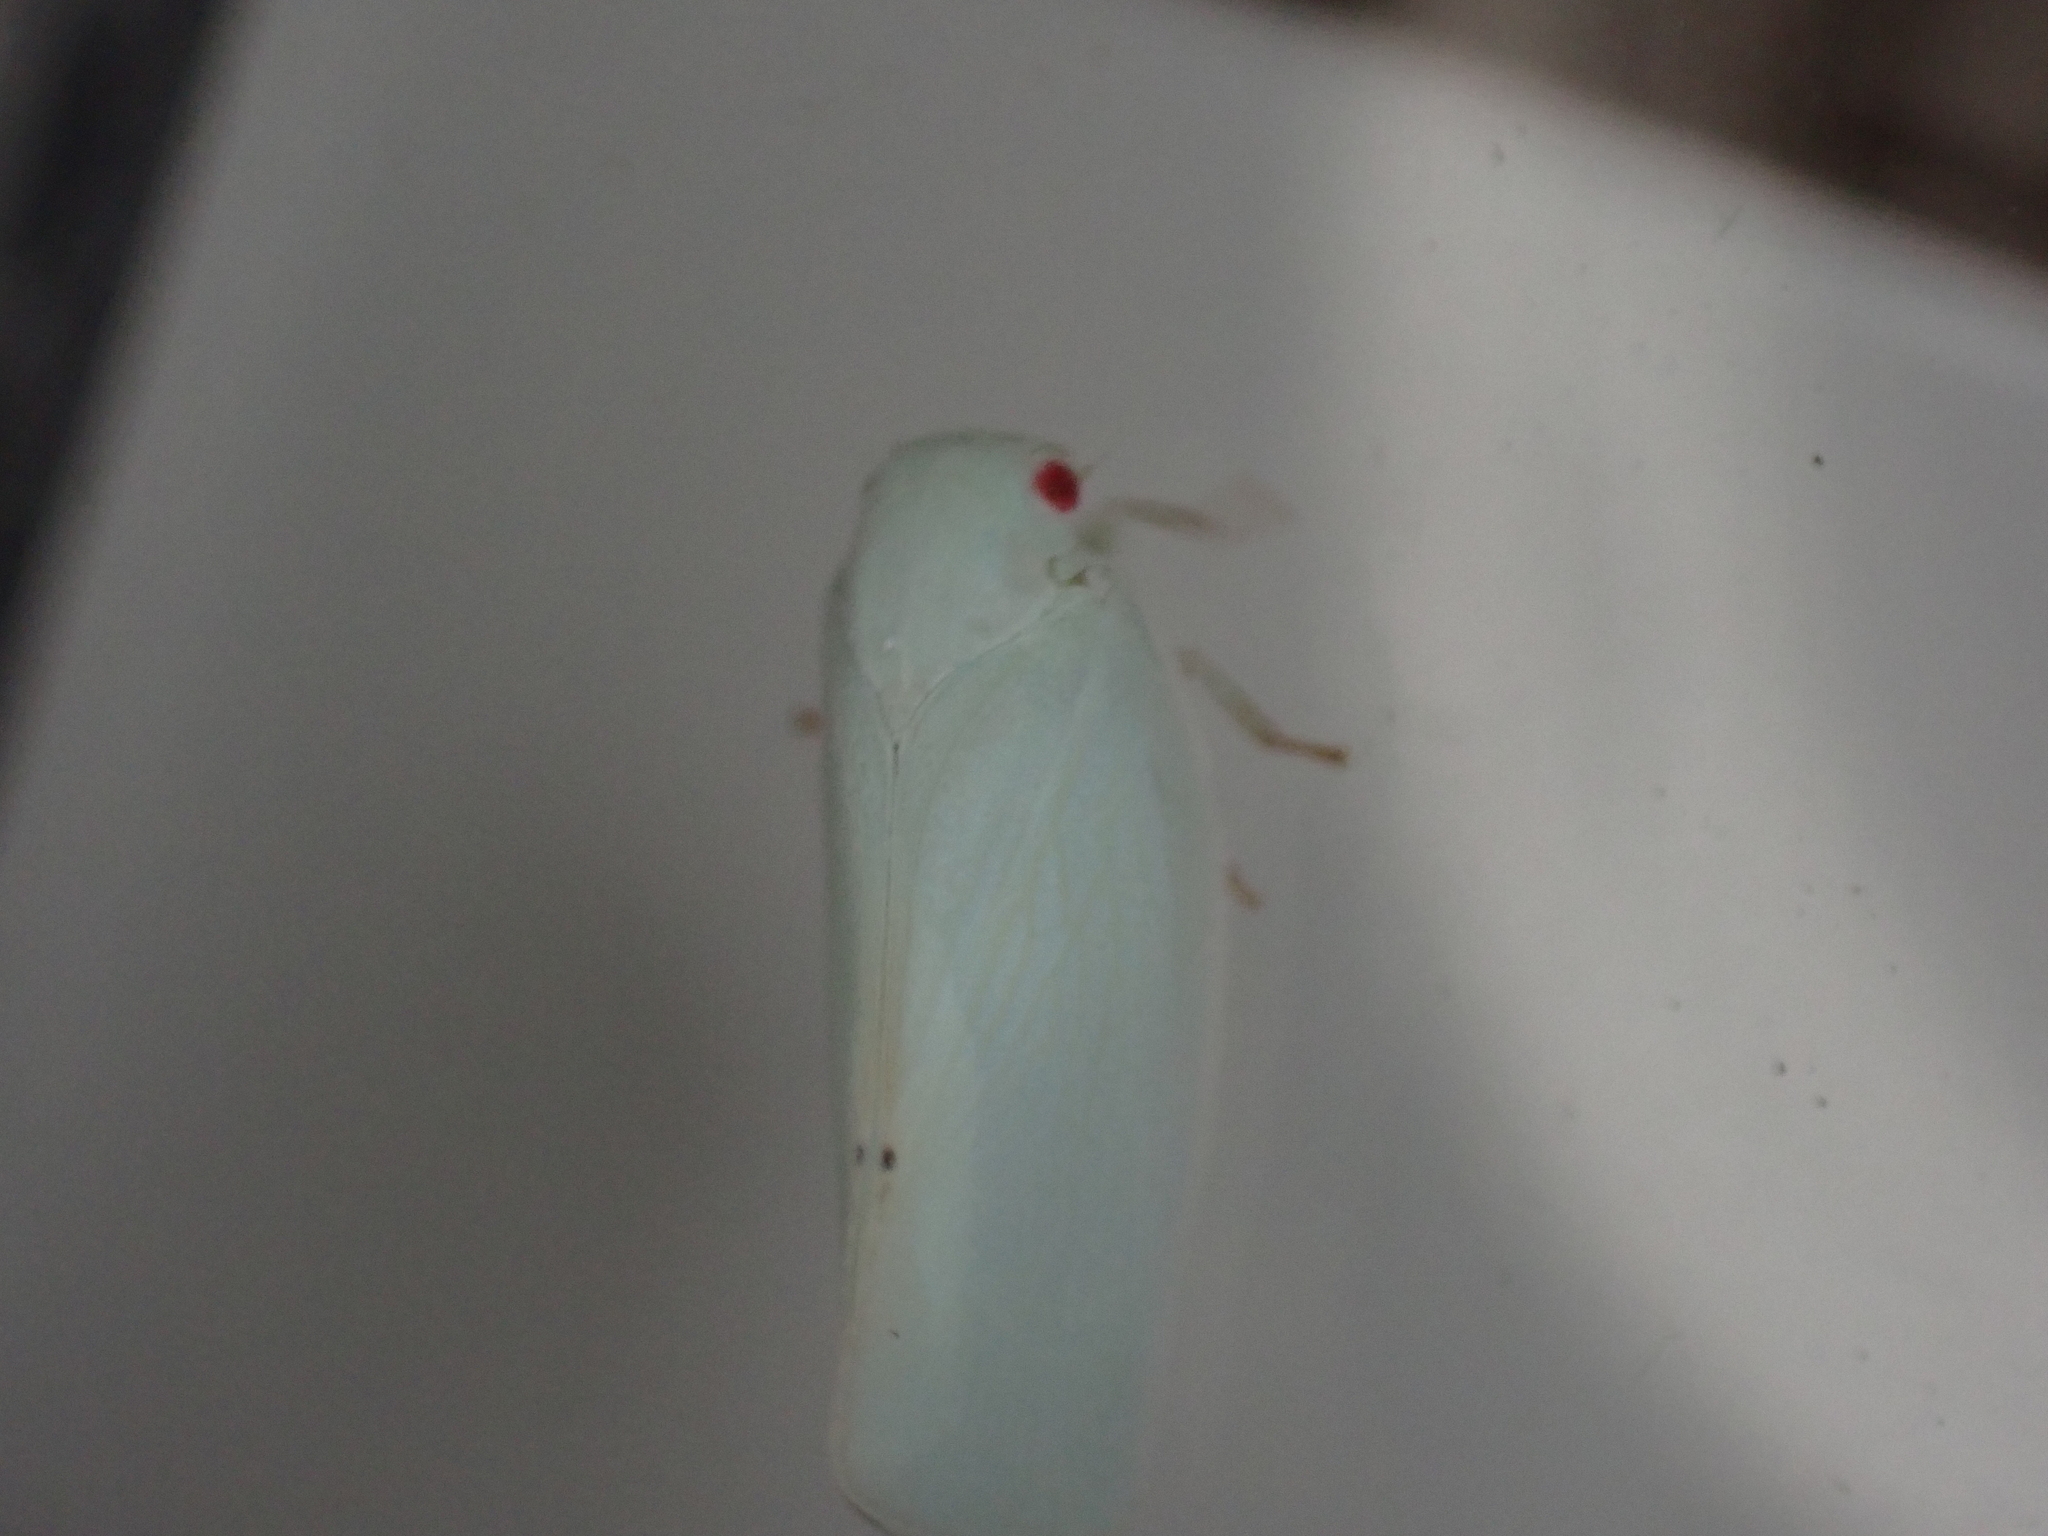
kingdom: Animalia
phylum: Arthropoda
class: Insecta
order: Hemiptera
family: Flatidae
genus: Flatormenis
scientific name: Flatormenis proxima
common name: Northern flatid planthopper
